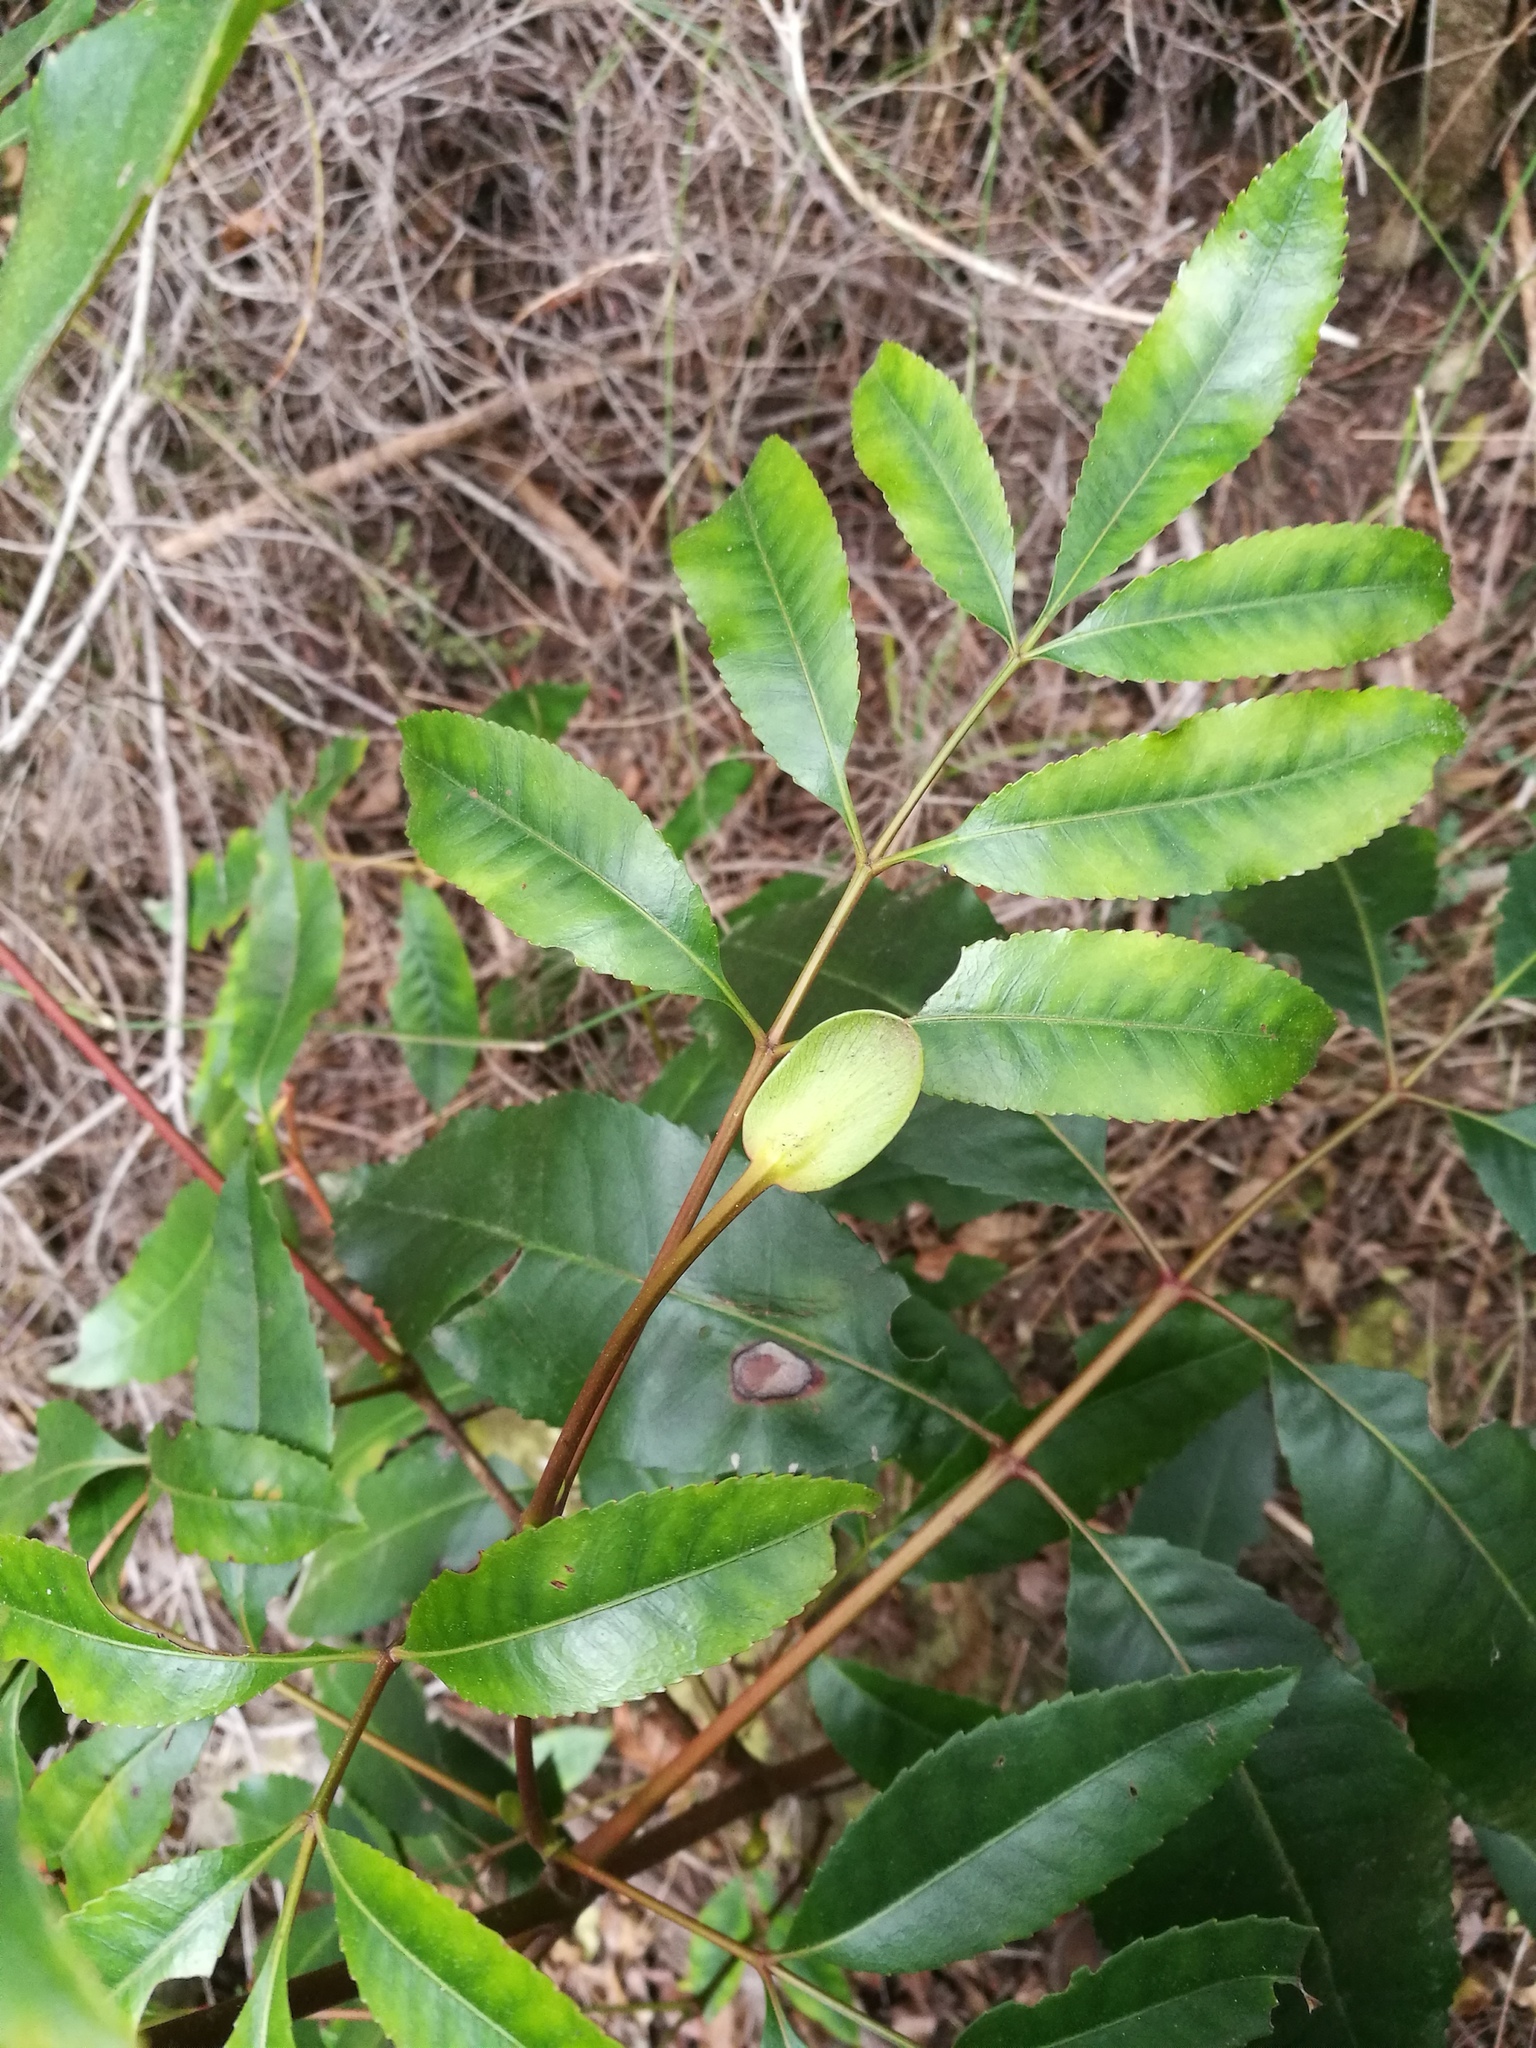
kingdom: Plantae
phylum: Tracheophyta
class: Magnoliopsida
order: Oxalidales
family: Cunoniaceae
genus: Cunonia
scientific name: Cunonia capensis
